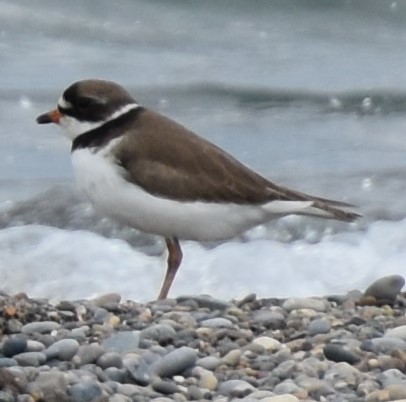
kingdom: Animalia
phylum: Chordata
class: Aves
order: Charadriiformes
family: Charadriidae
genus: Charadrius
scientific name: Charadrius semipalmatus
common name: Semipalmated plover
